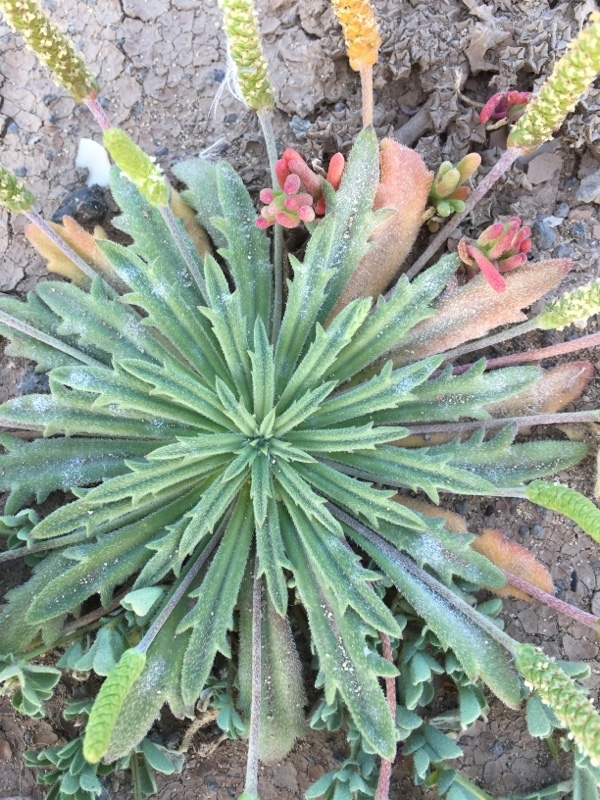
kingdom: Plantae
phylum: Tracheophyta
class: Magnoliopsida
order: Lamiales
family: Plantaginaceae
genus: Plantago
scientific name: Plantago coronopus
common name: Buck's-horn plantain
